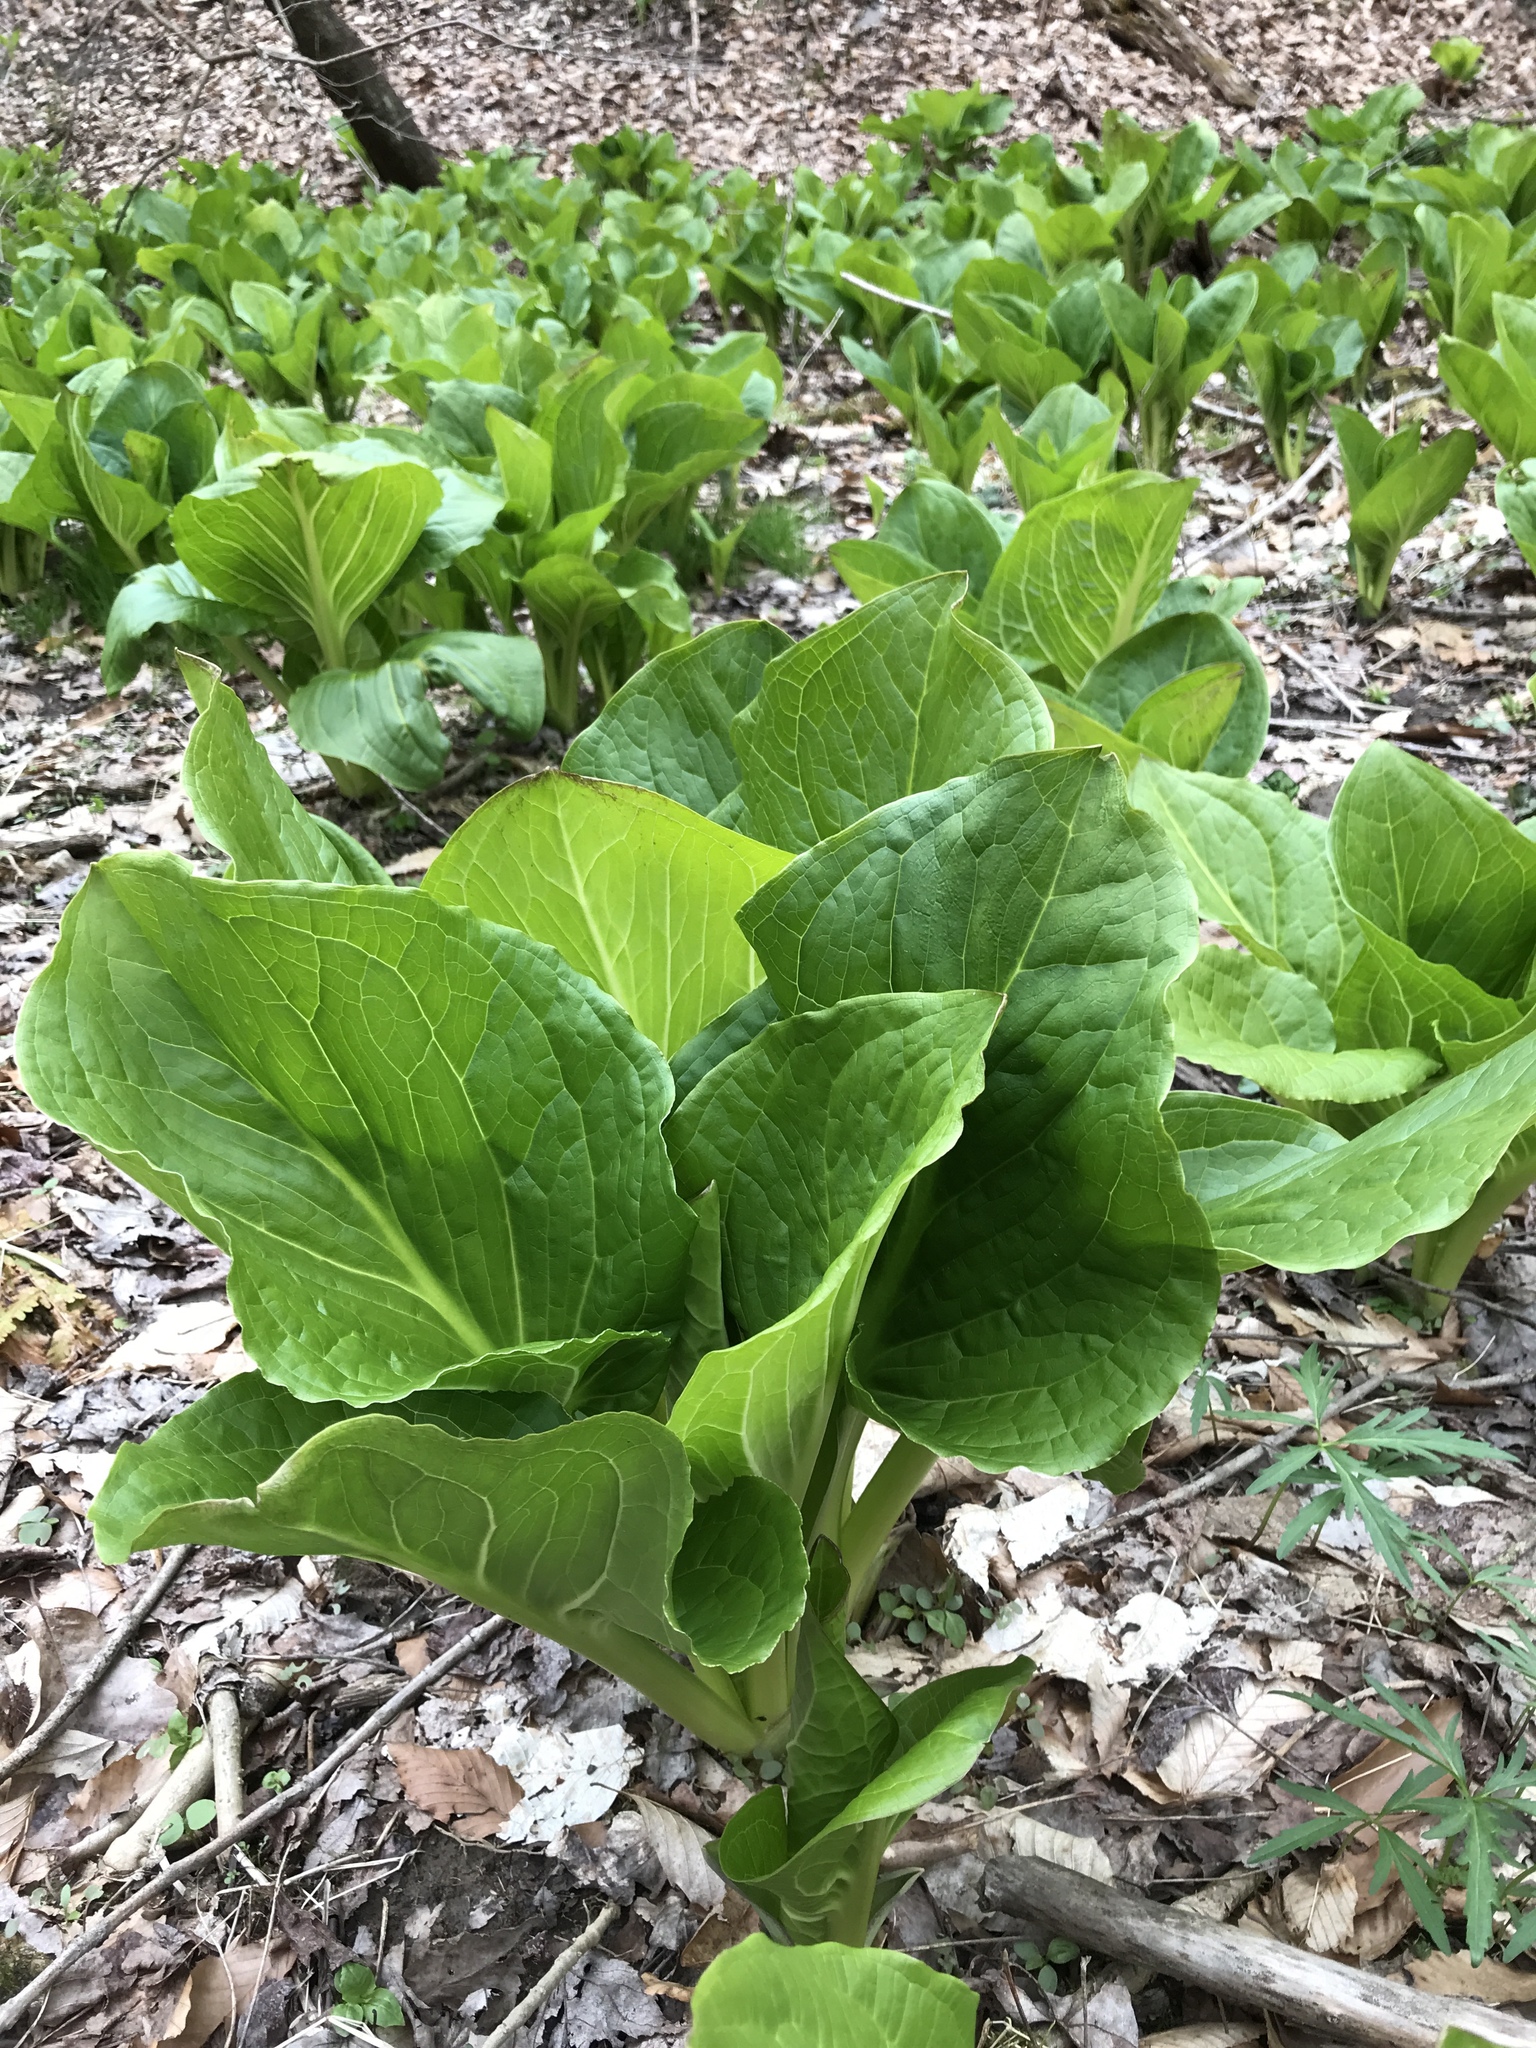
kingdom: Plantae
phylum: Tracheophyta
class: Liliopsida
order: Alismatales
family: Araceae
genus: Symplocarpus
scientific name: Symplocarpus foetidus
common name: Eastern skunk cabbage
